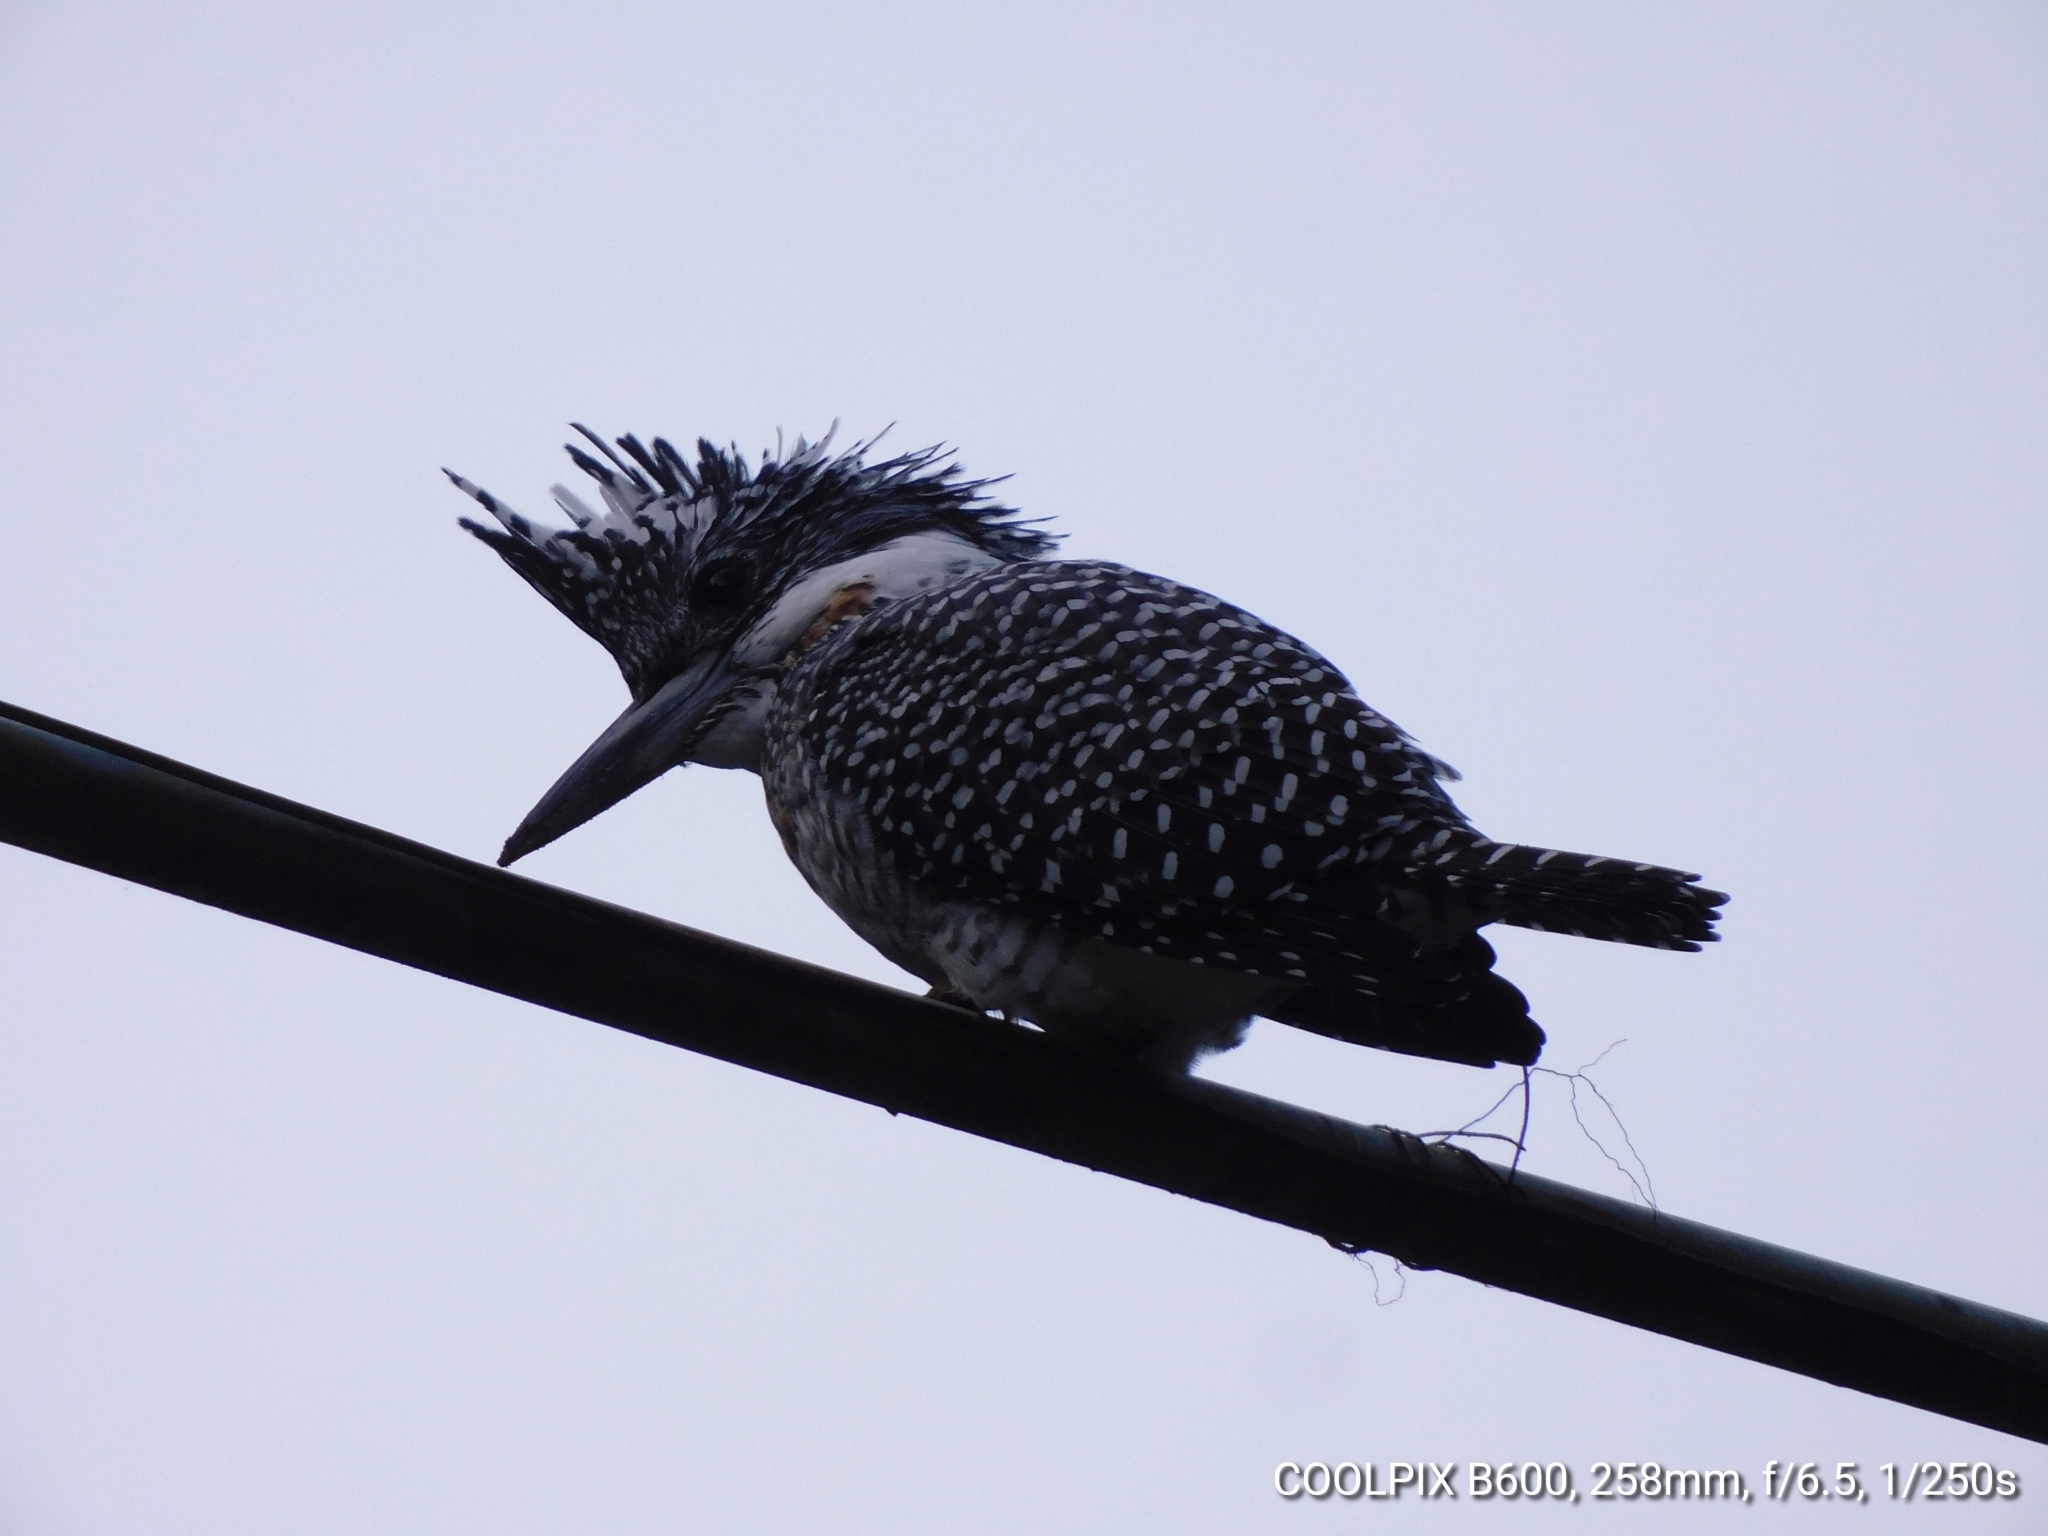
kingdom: Animalia
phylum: Chordata
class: Aves
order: Coraciiformes
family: Alcedinidae
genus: Megaceryle
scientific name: Megaceryle lugubris
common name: Crested kingfisher
